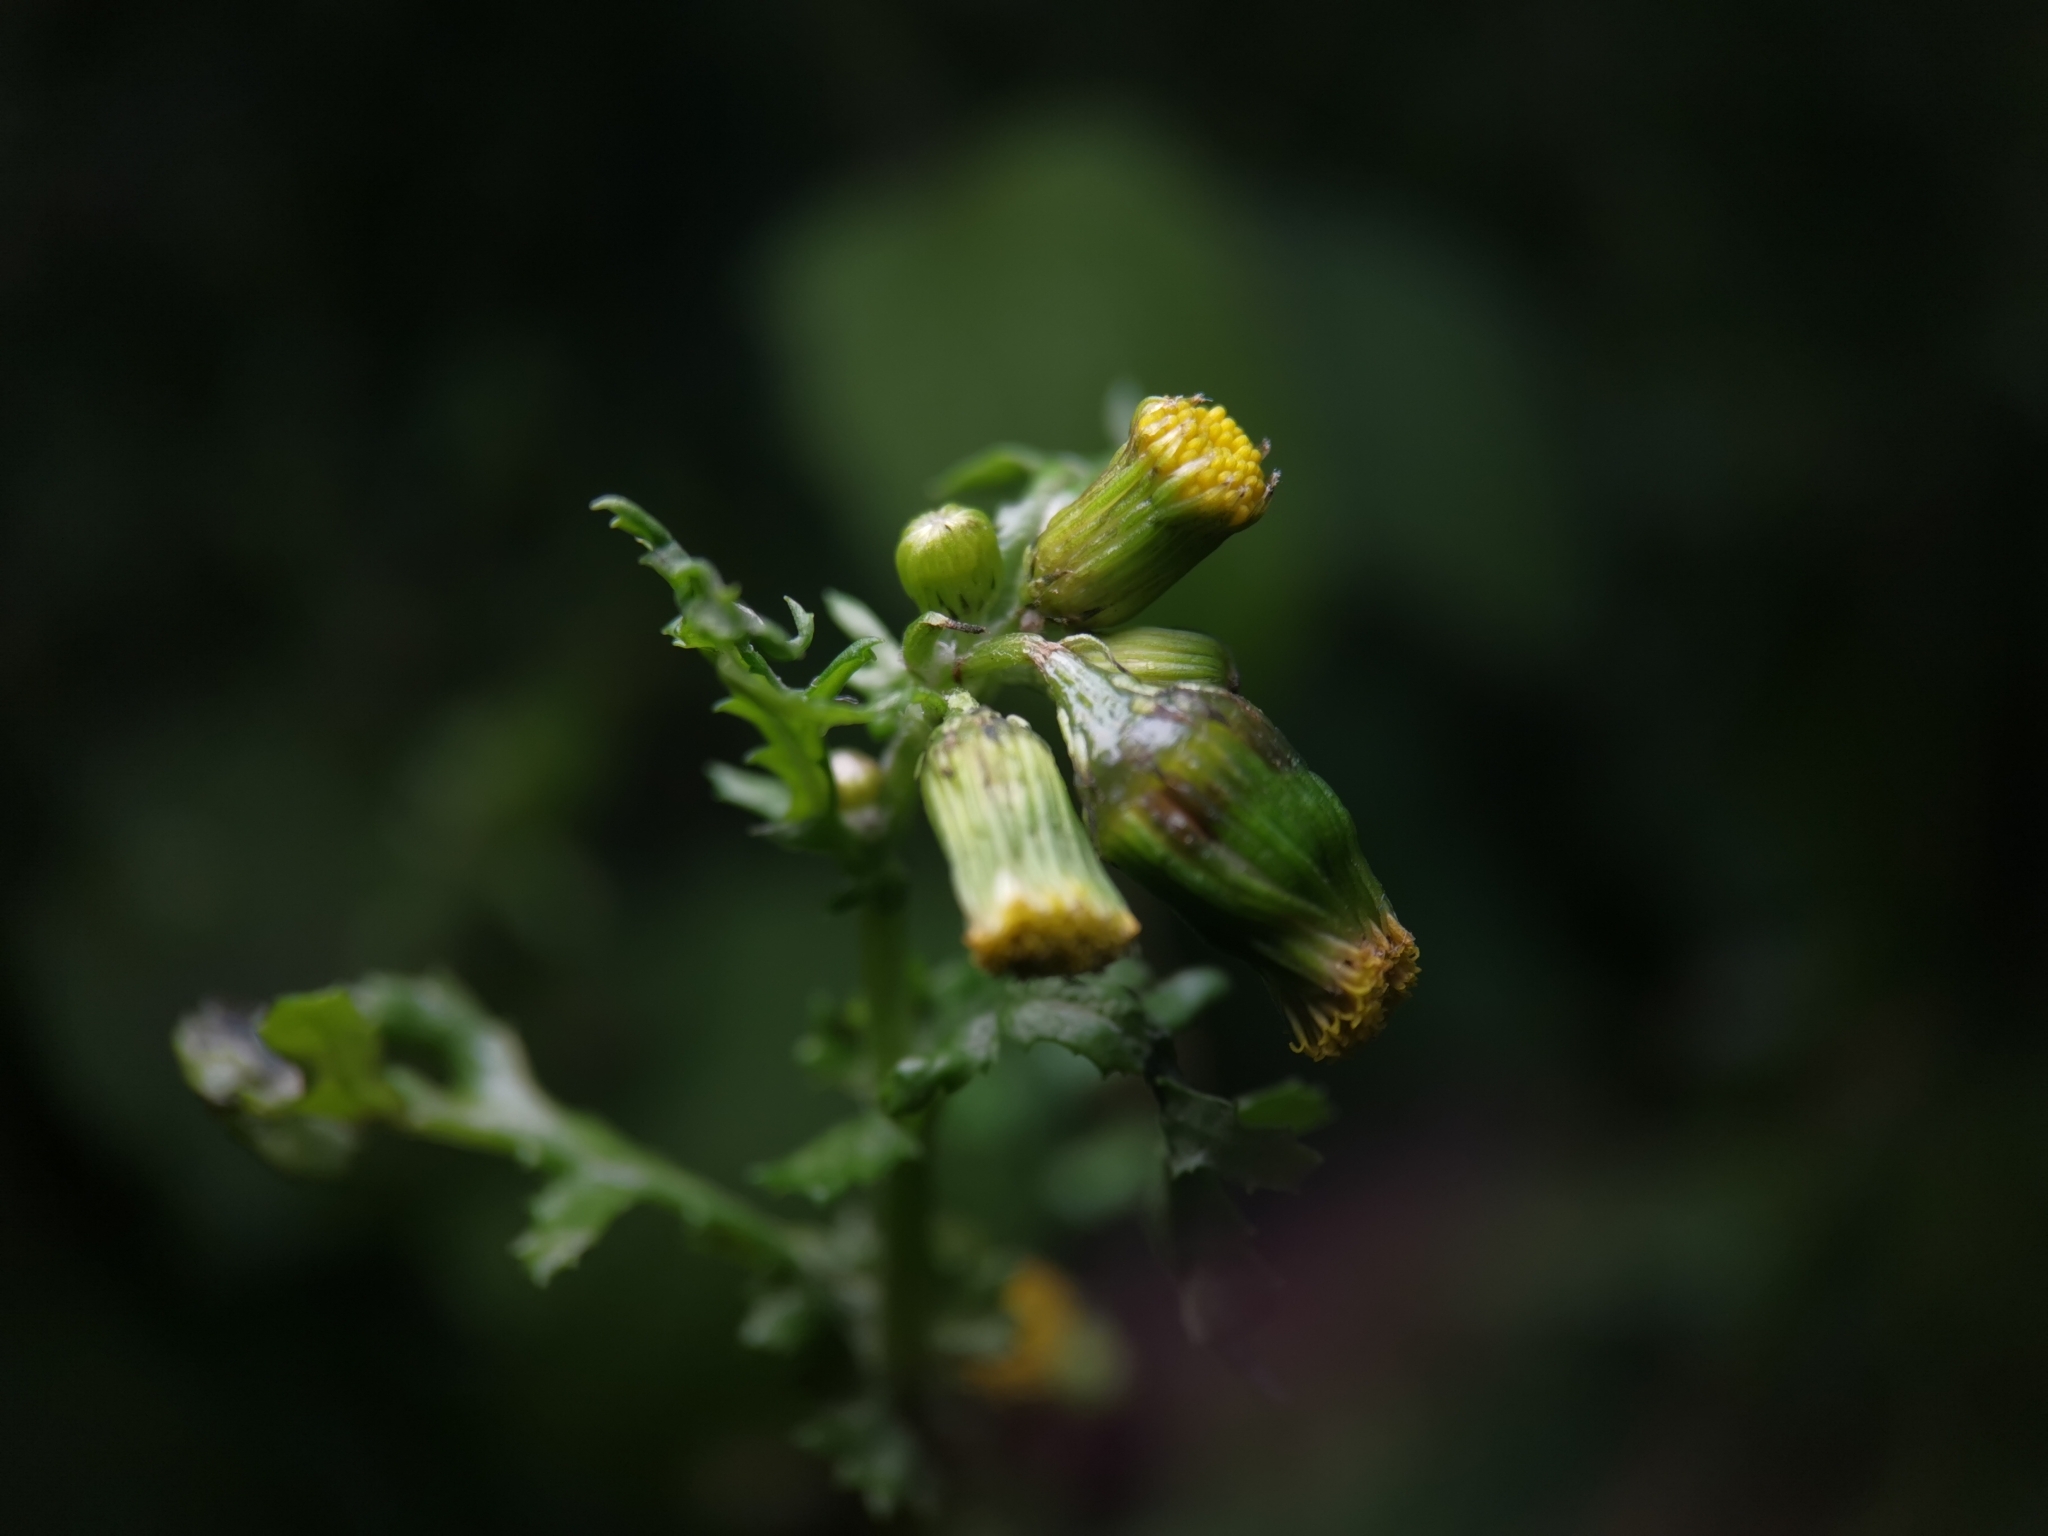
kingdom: Plantae
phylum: Tracheophyta
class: Magnoliopsida
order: Asterales
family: Asteraceae
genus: Senecio
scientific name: Senecio vulgaris
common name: Old-man-in-the-spring
